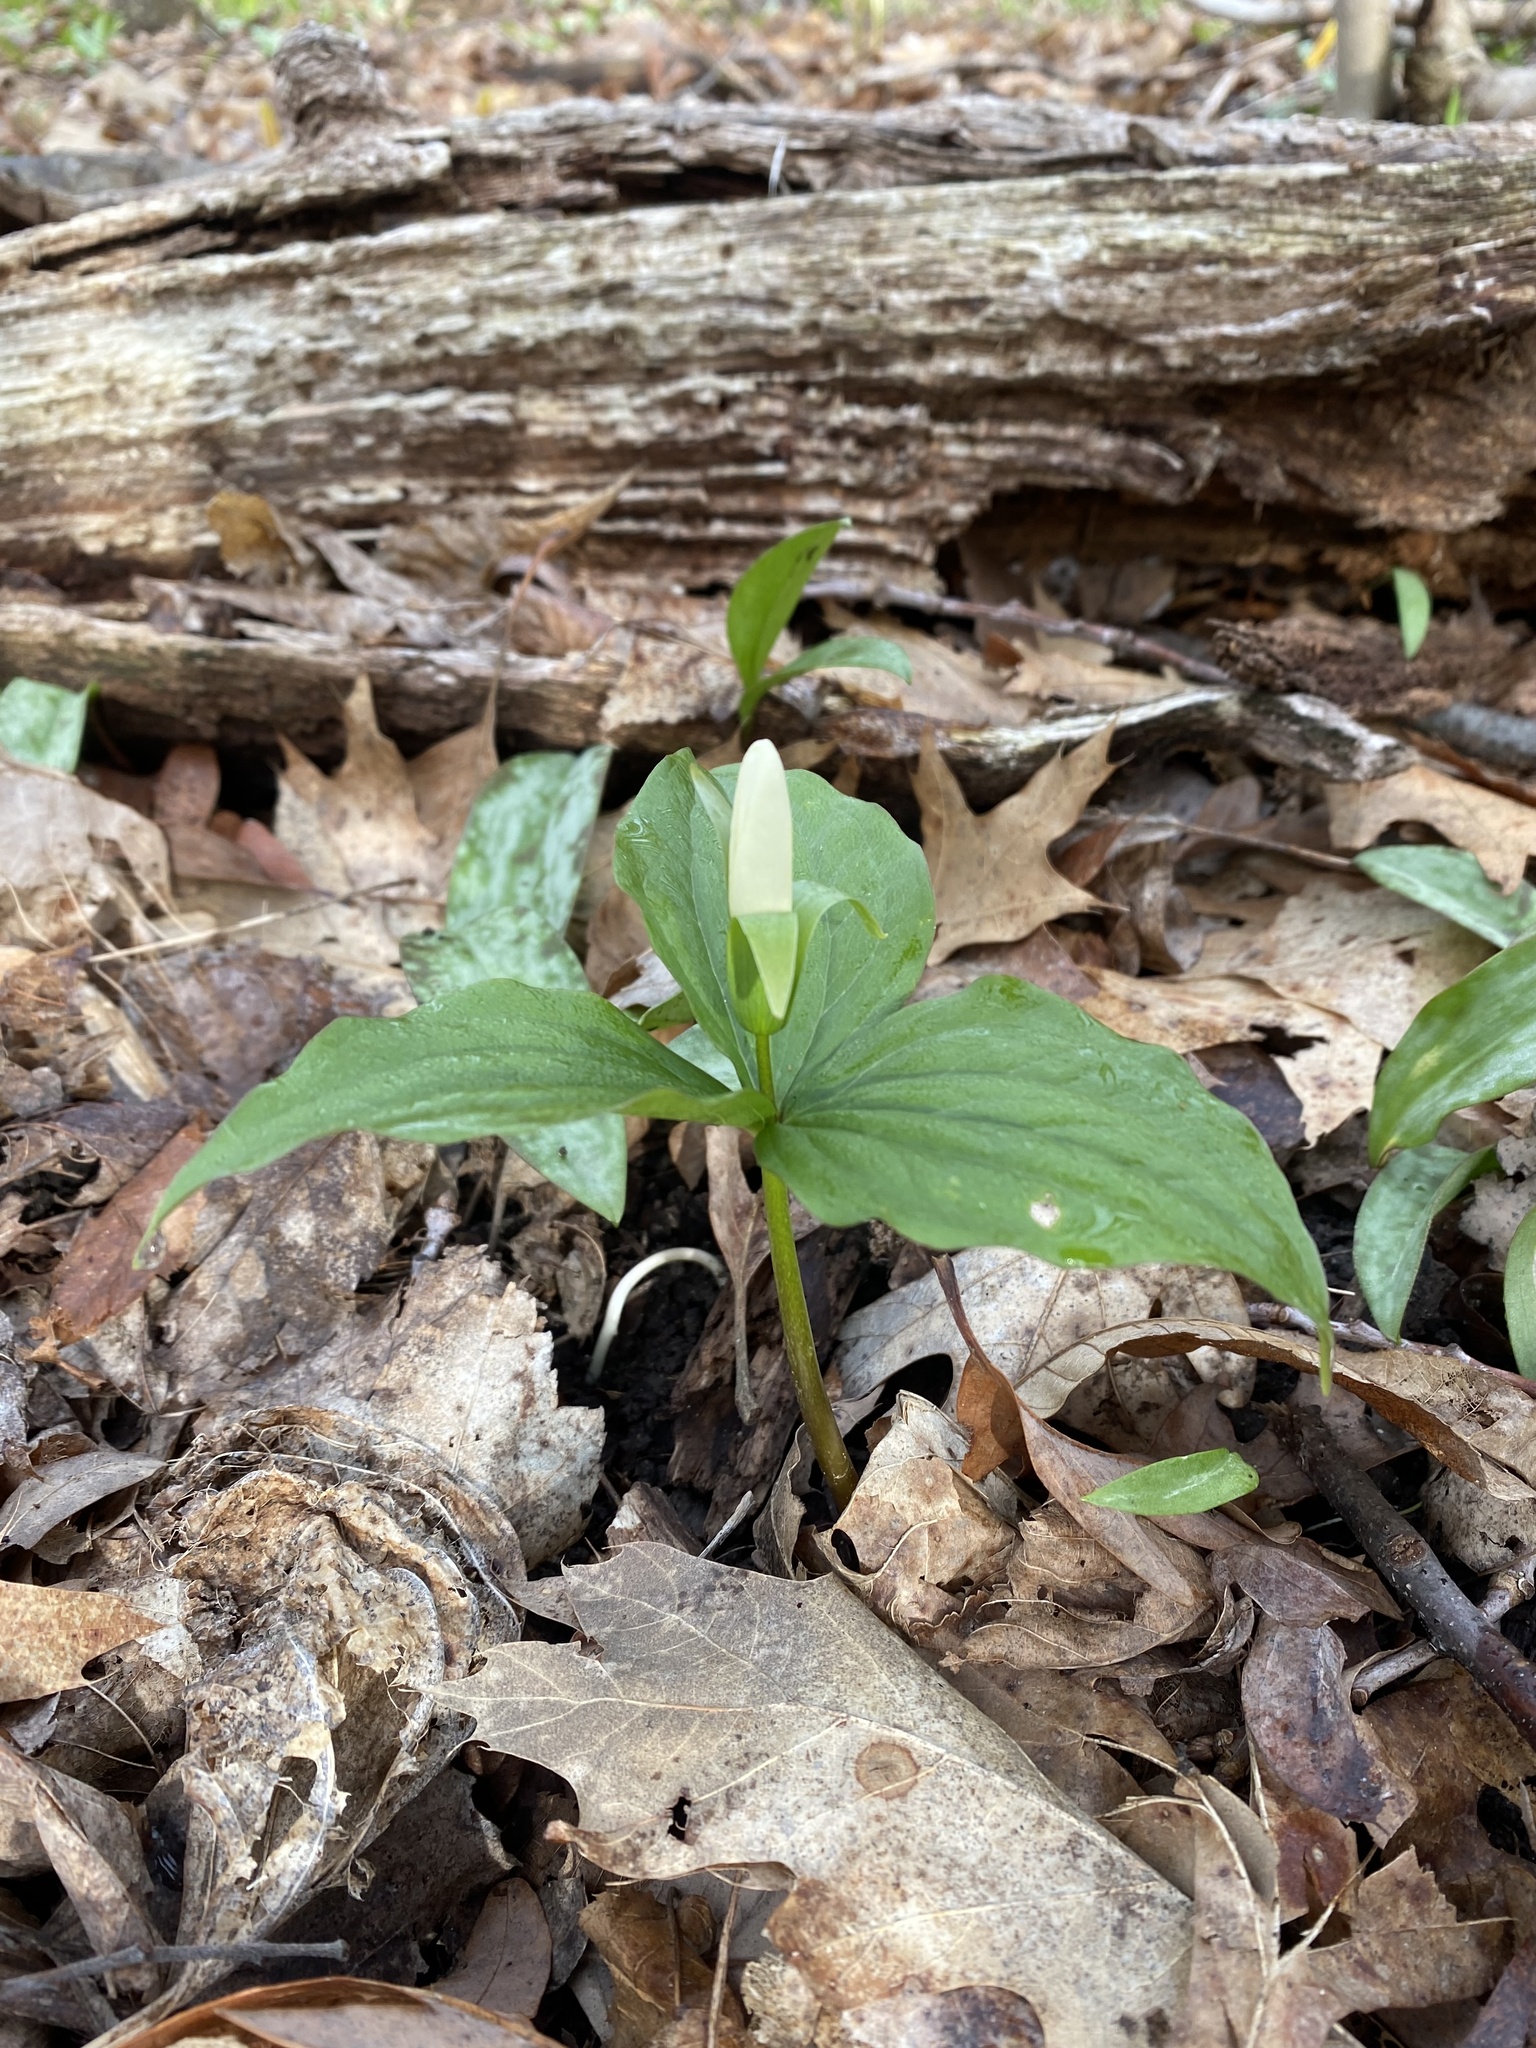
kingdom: Plantae
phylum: Tracheophyta
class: Liliopsida
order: Liliales
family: Melanthiaceae
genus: Trillium
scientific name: Trillium grandiflorum
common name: Great white trillium
